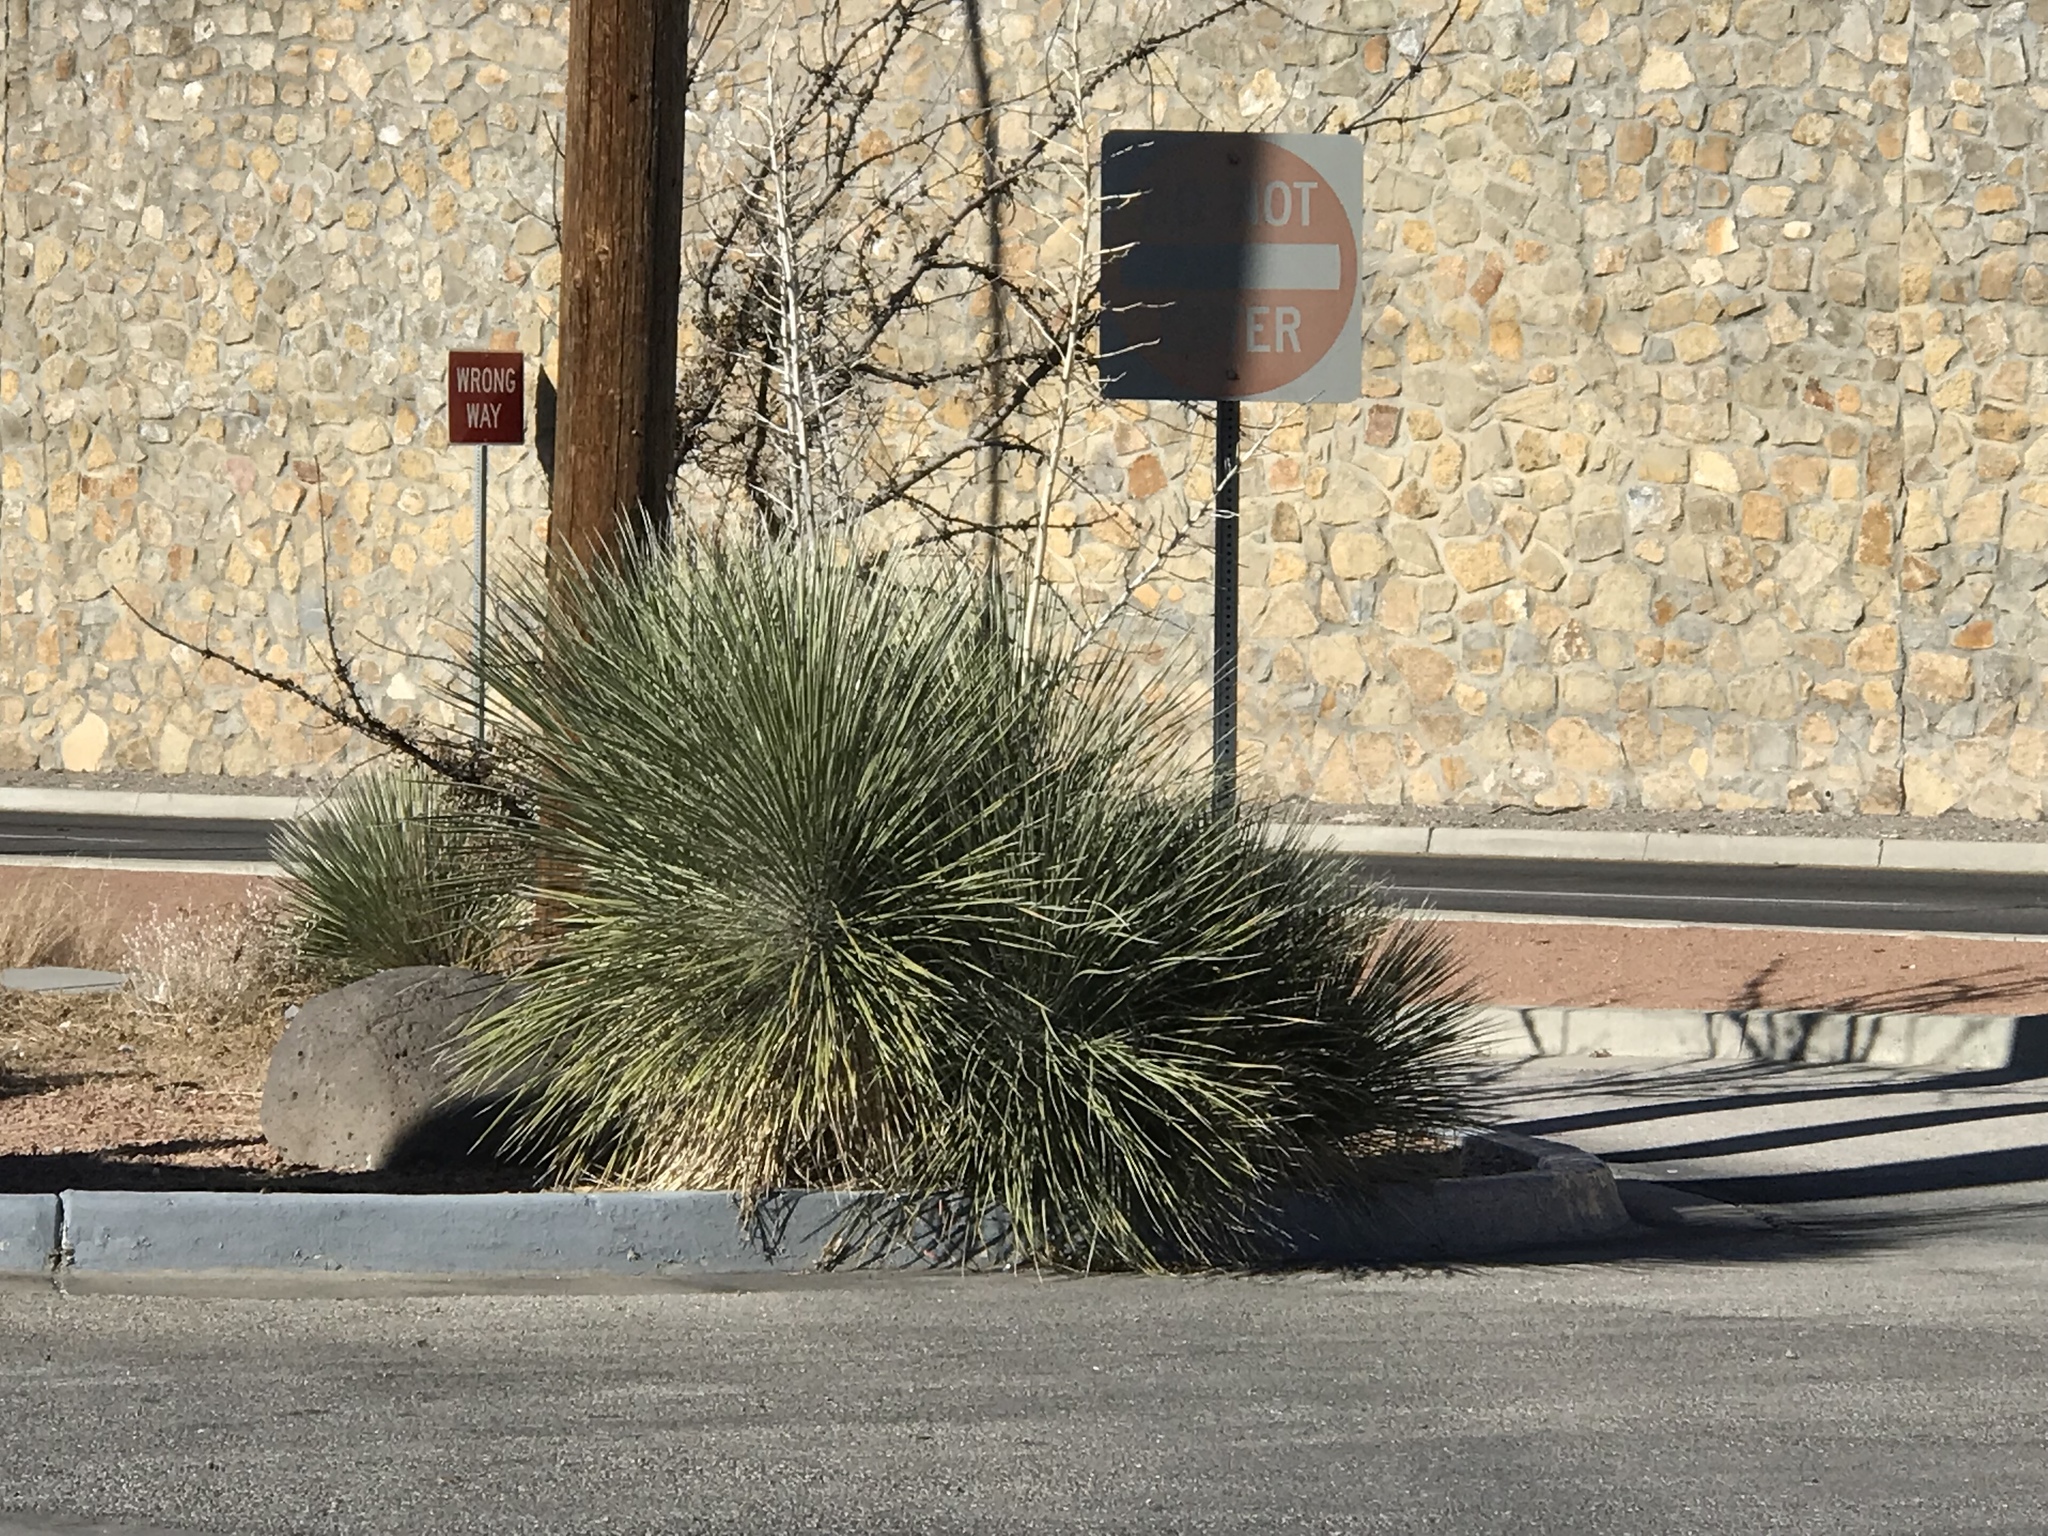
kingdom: Plantae
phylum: Tracheophyta
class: Liliopsida
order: Asparagales
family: Asparagaceae
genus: Yucca
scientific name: Yucca elata
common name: Palmella
